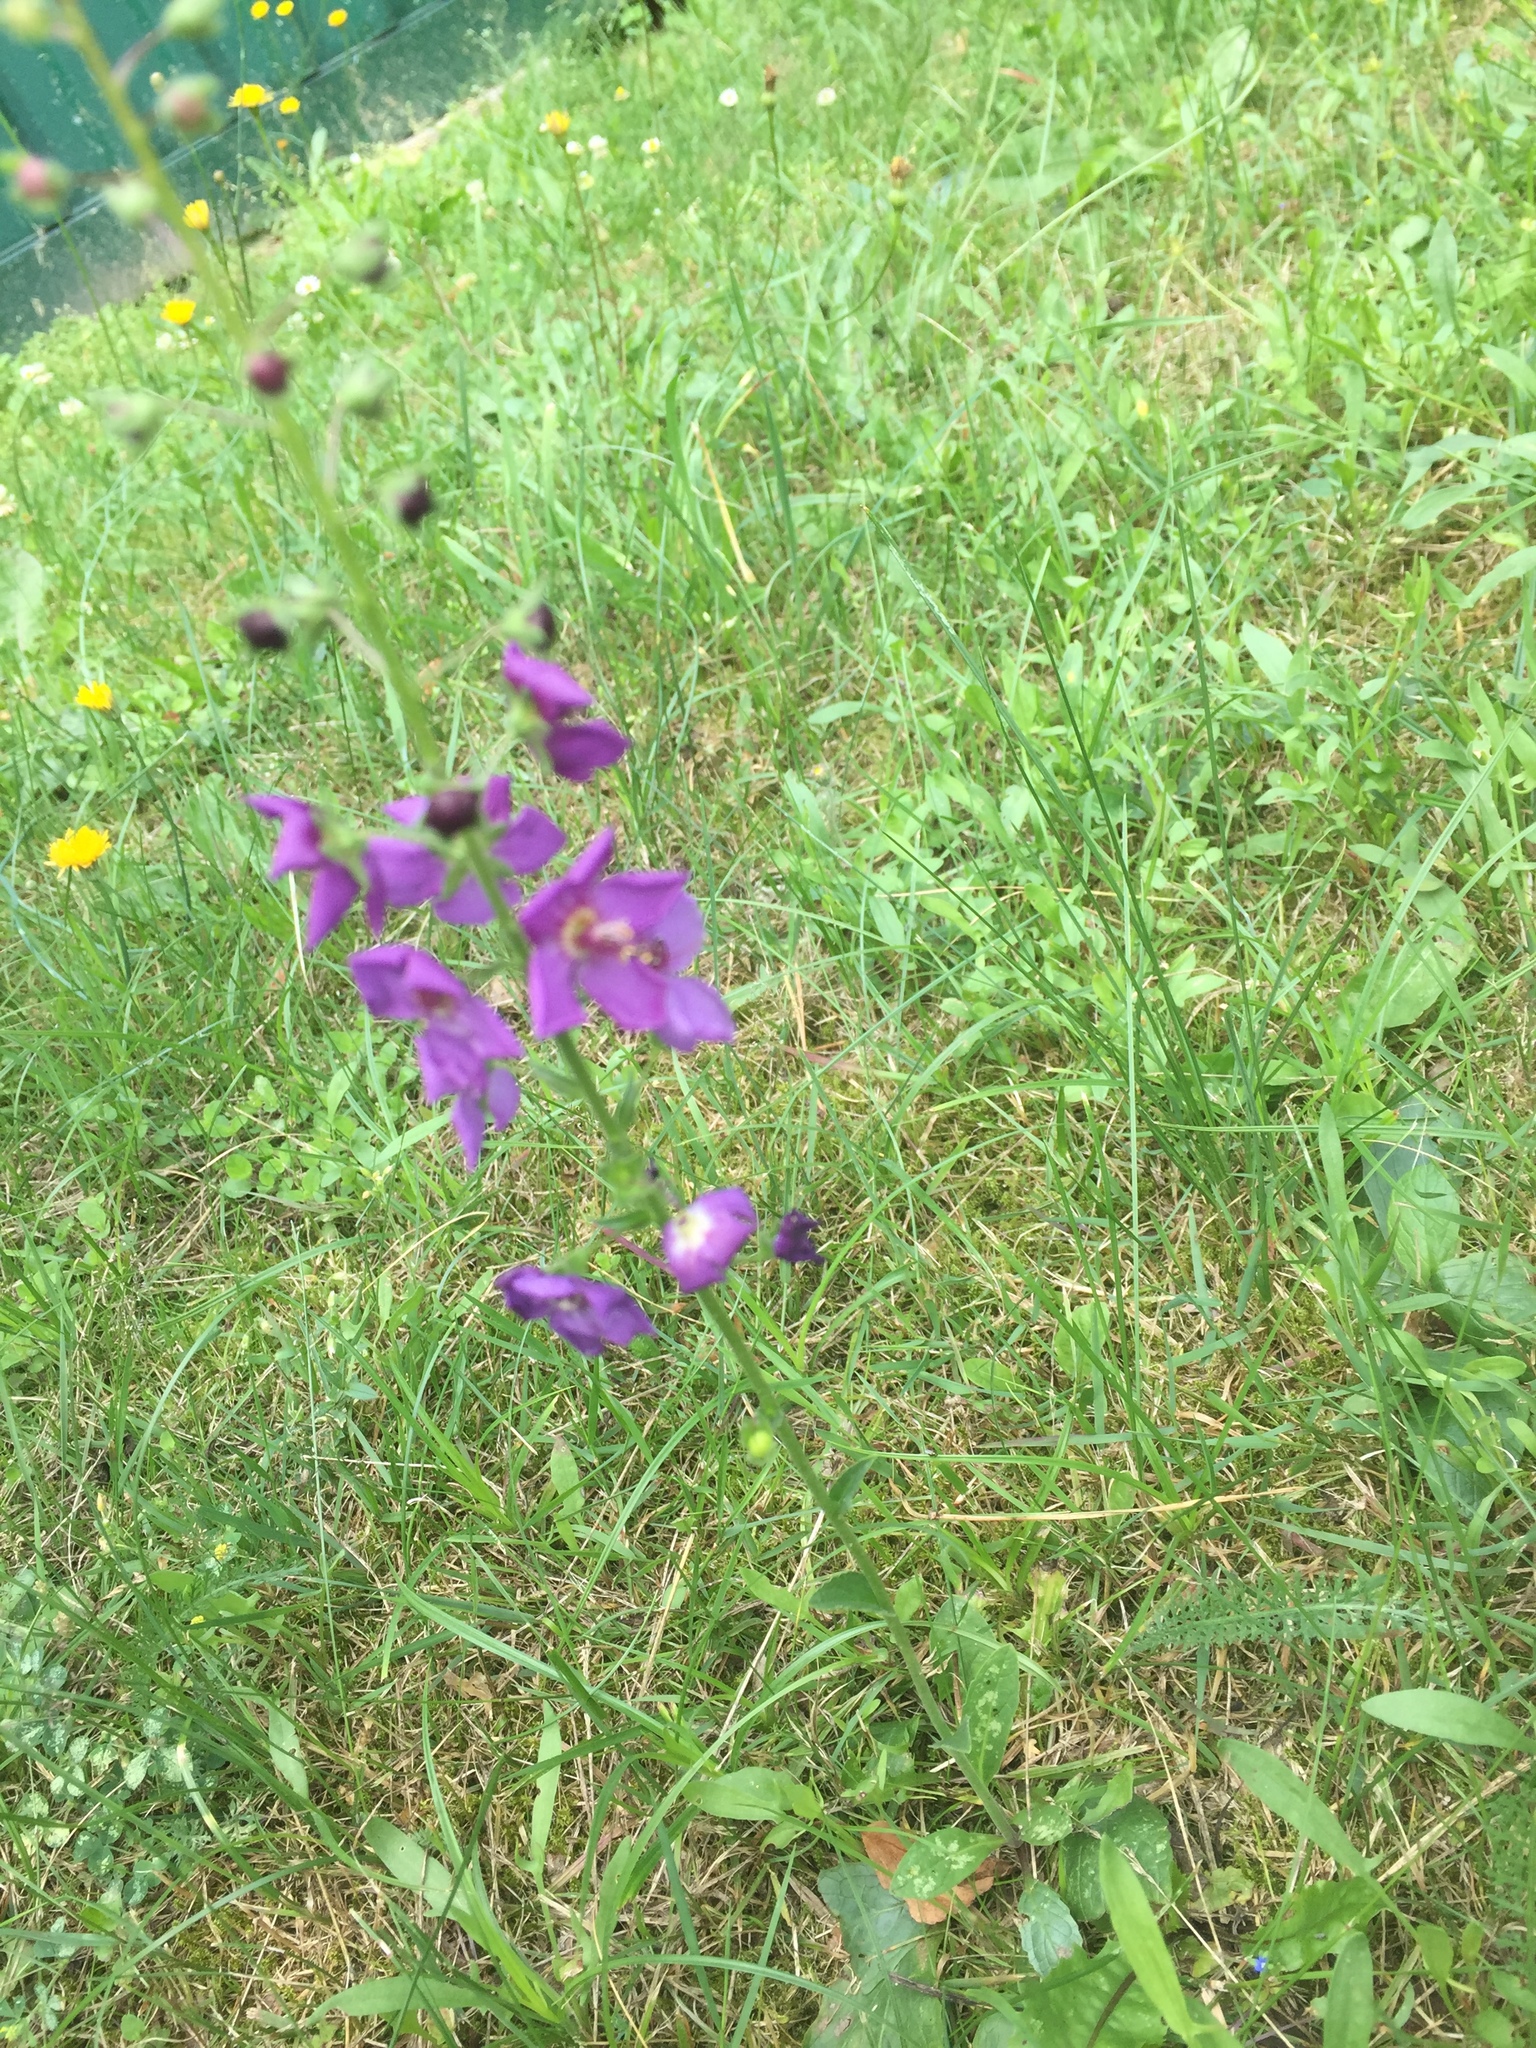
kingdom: Plantae
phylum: Tracheophyta
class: Magnoliopsida
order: Lamiales
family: Scrophulariaceae
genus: Verbascum
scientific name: Verbascum phoeniceum
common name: Purple mullein
